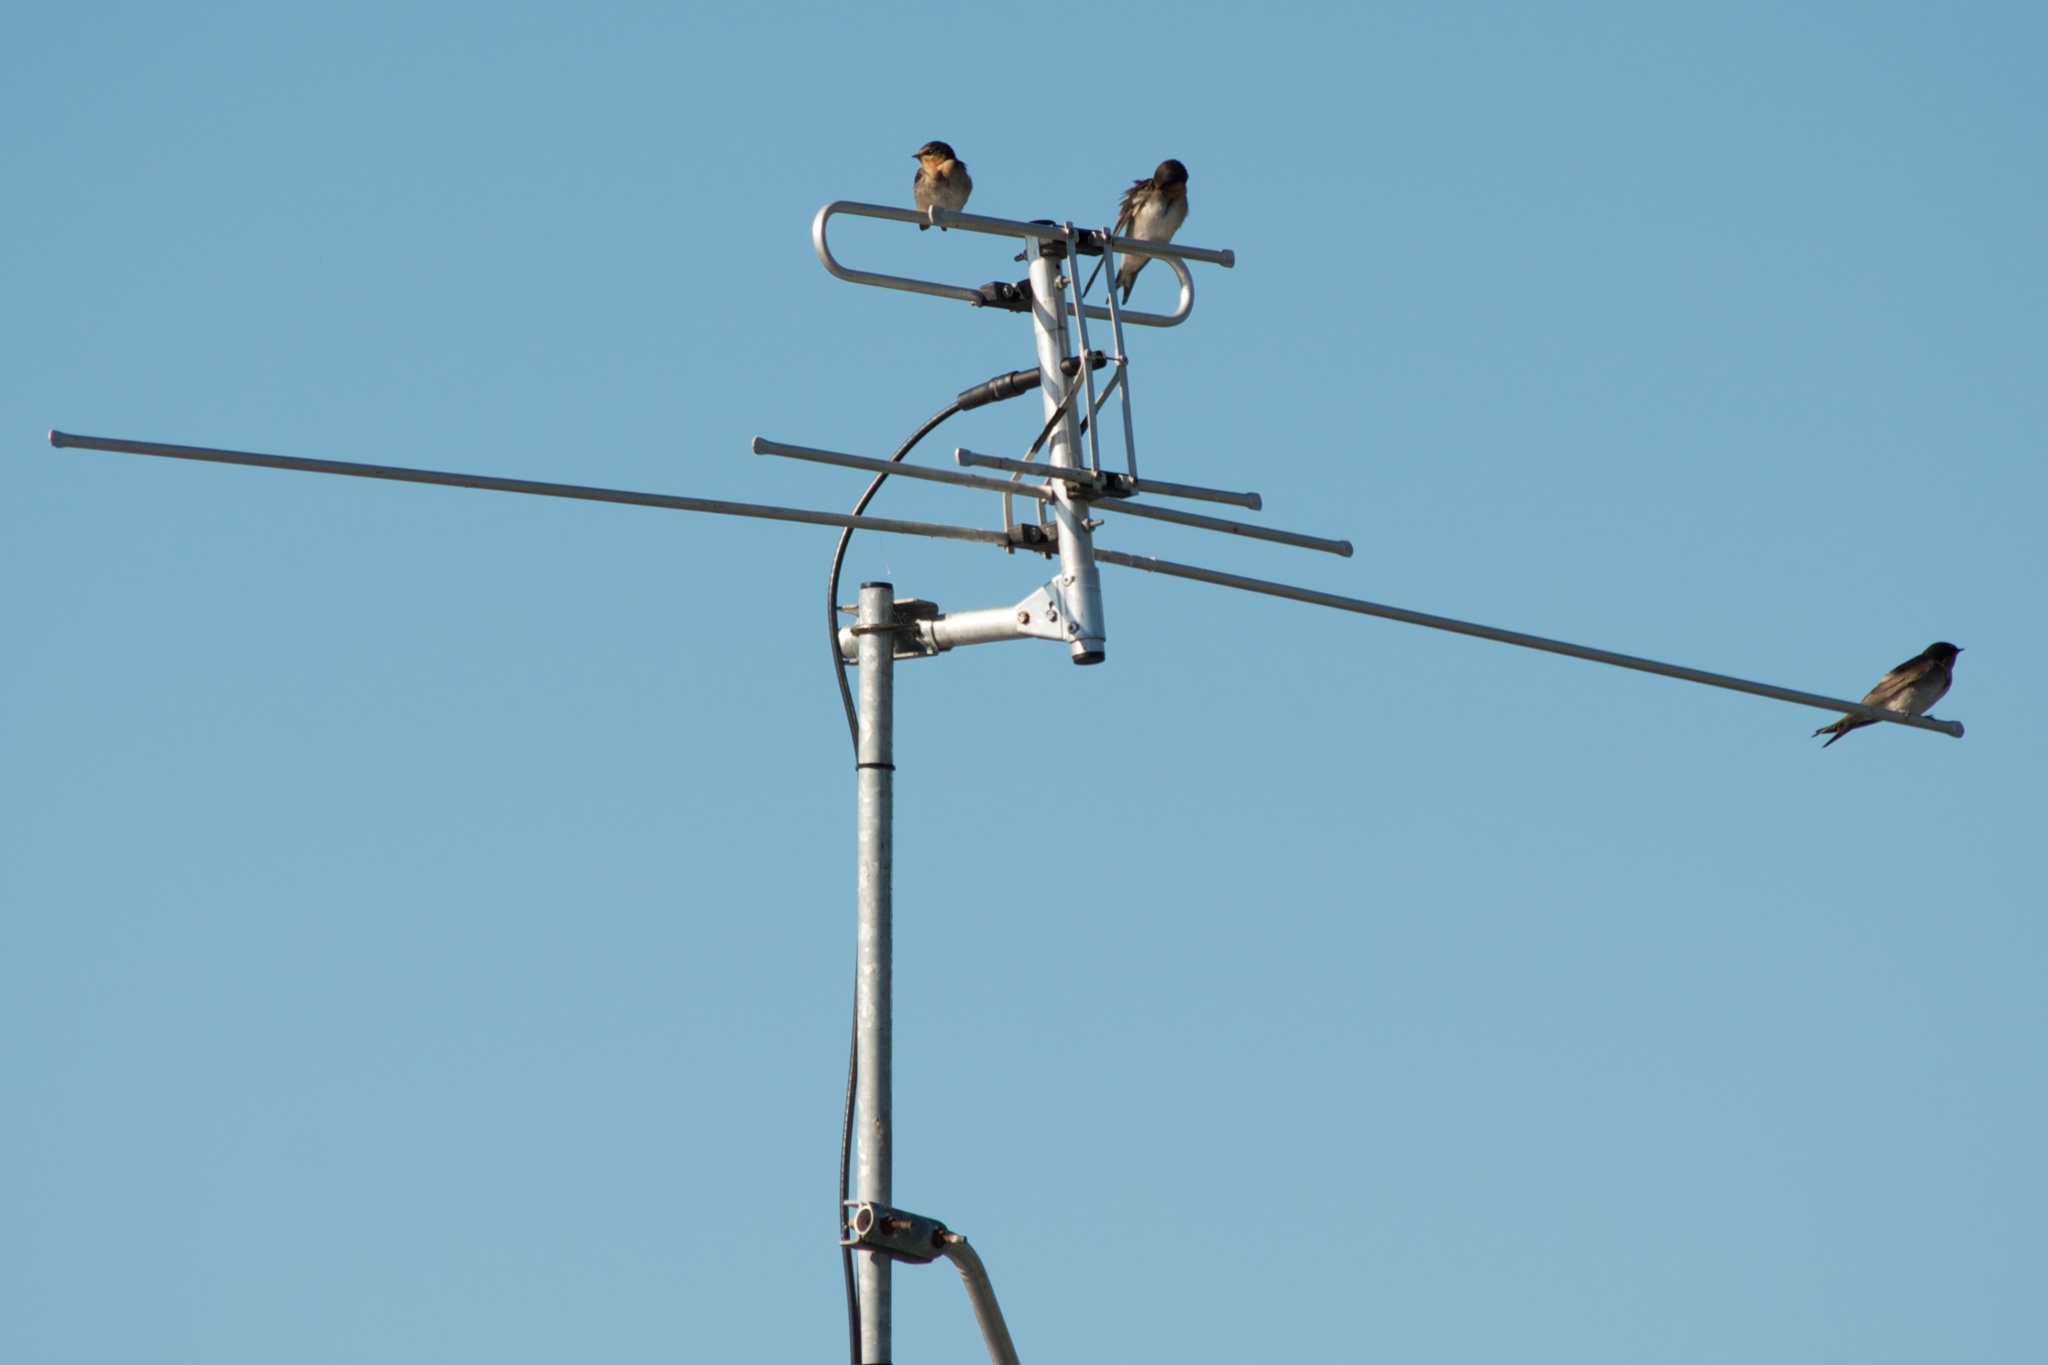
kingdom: Animalia
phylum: Chordata
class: Aves
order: Passeriformes
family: Hirundinidae
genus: Hirundo
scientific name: Hirundo neoxena
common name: Welcome swallow
